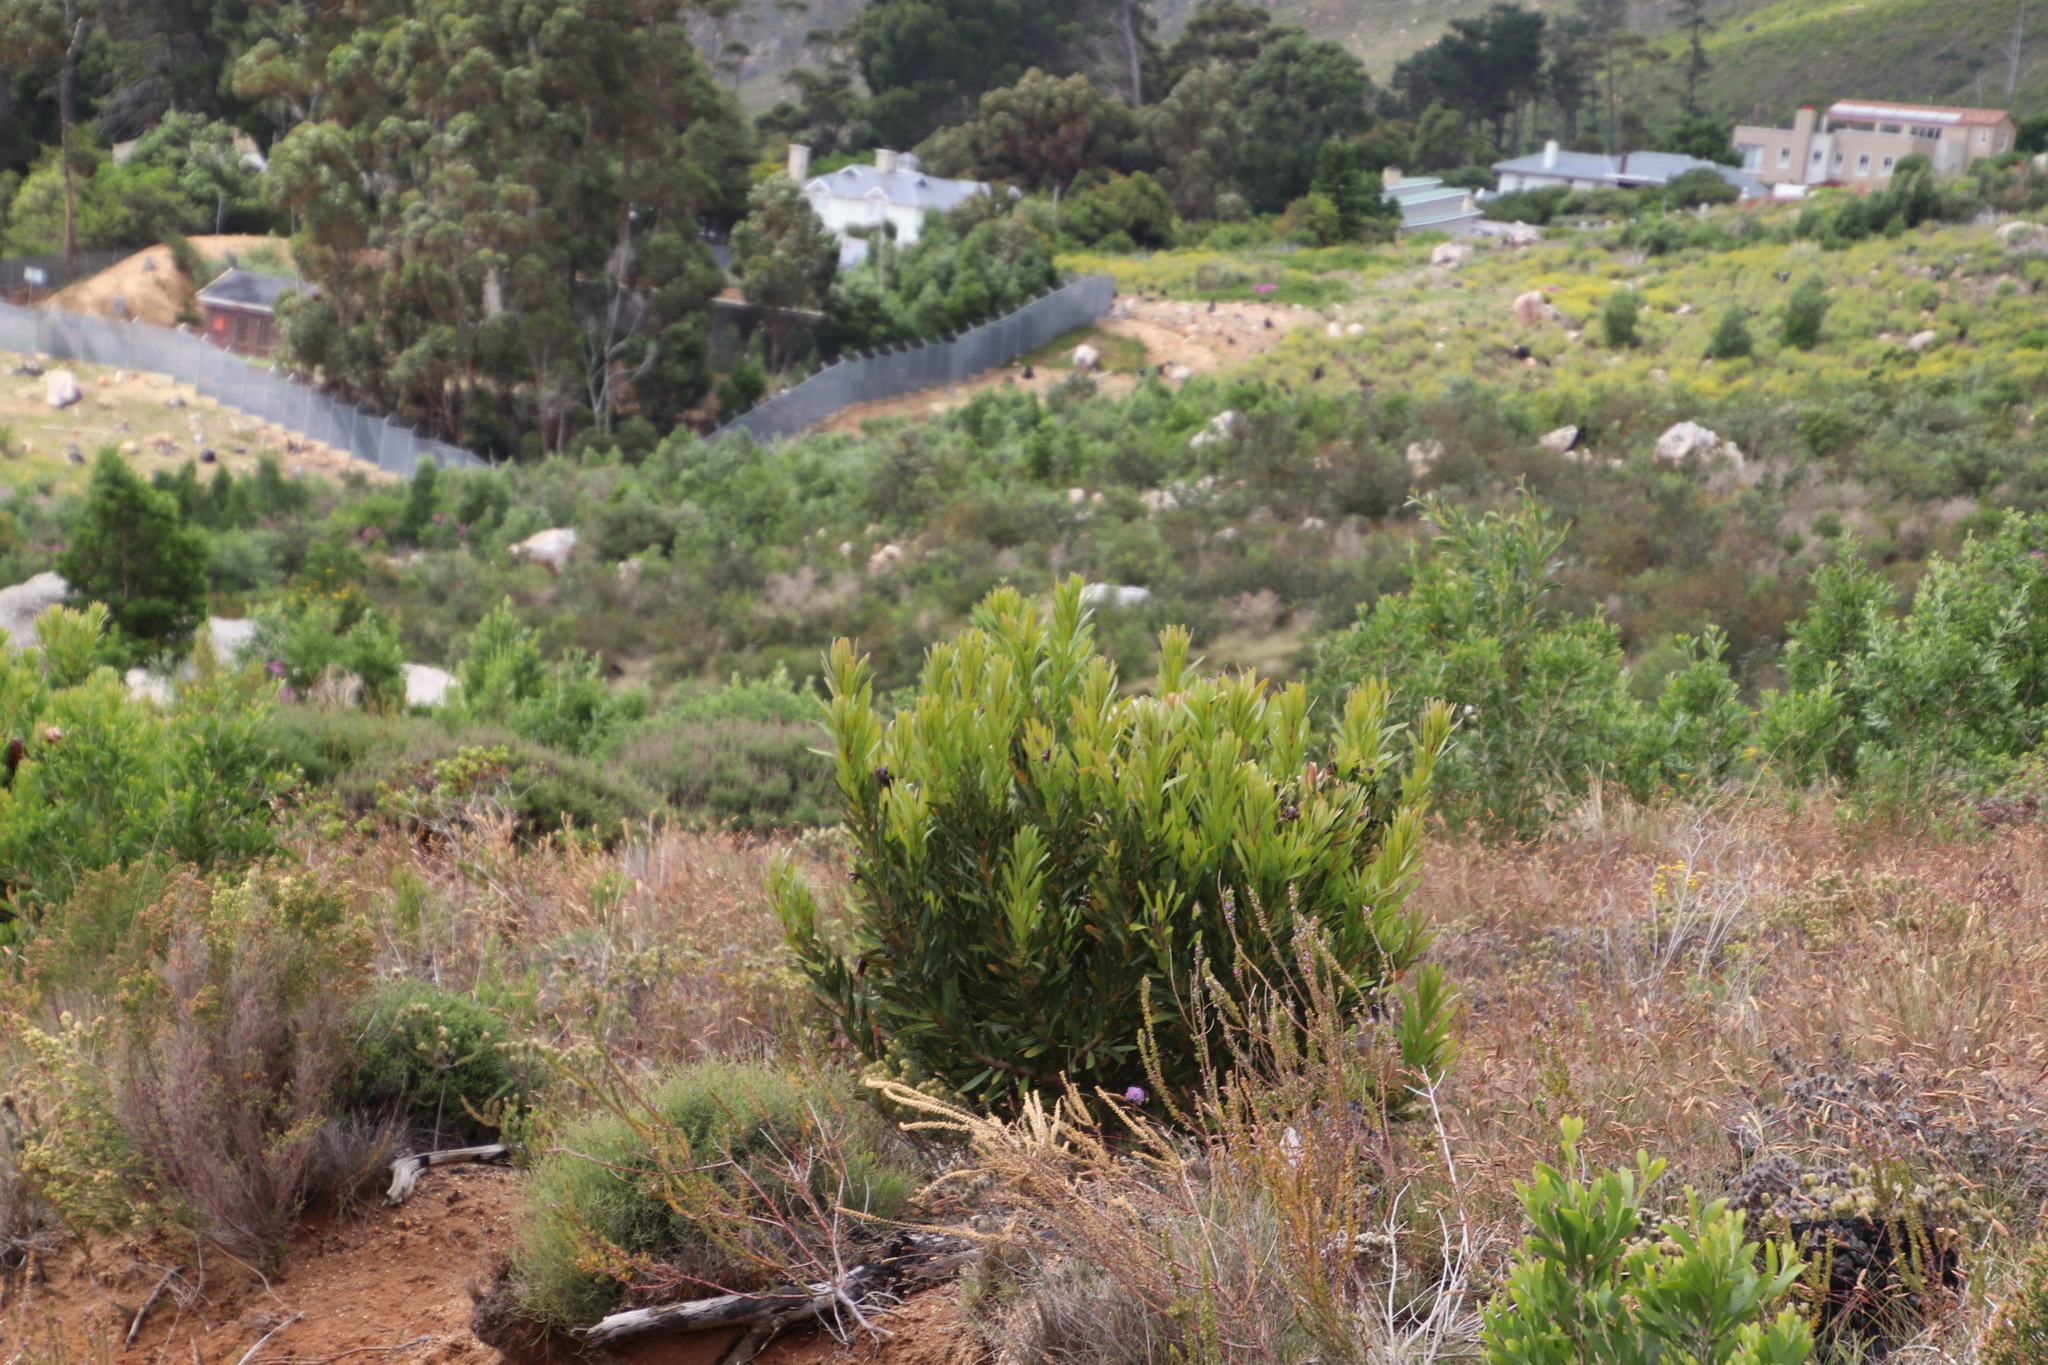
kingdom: Plantae
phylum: Tracheophyta
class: Magnoliopsida
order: Proteales
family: Proteaceae
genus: Protea
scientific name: Protea lepidocarpodendron
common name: Black-bearded protea
